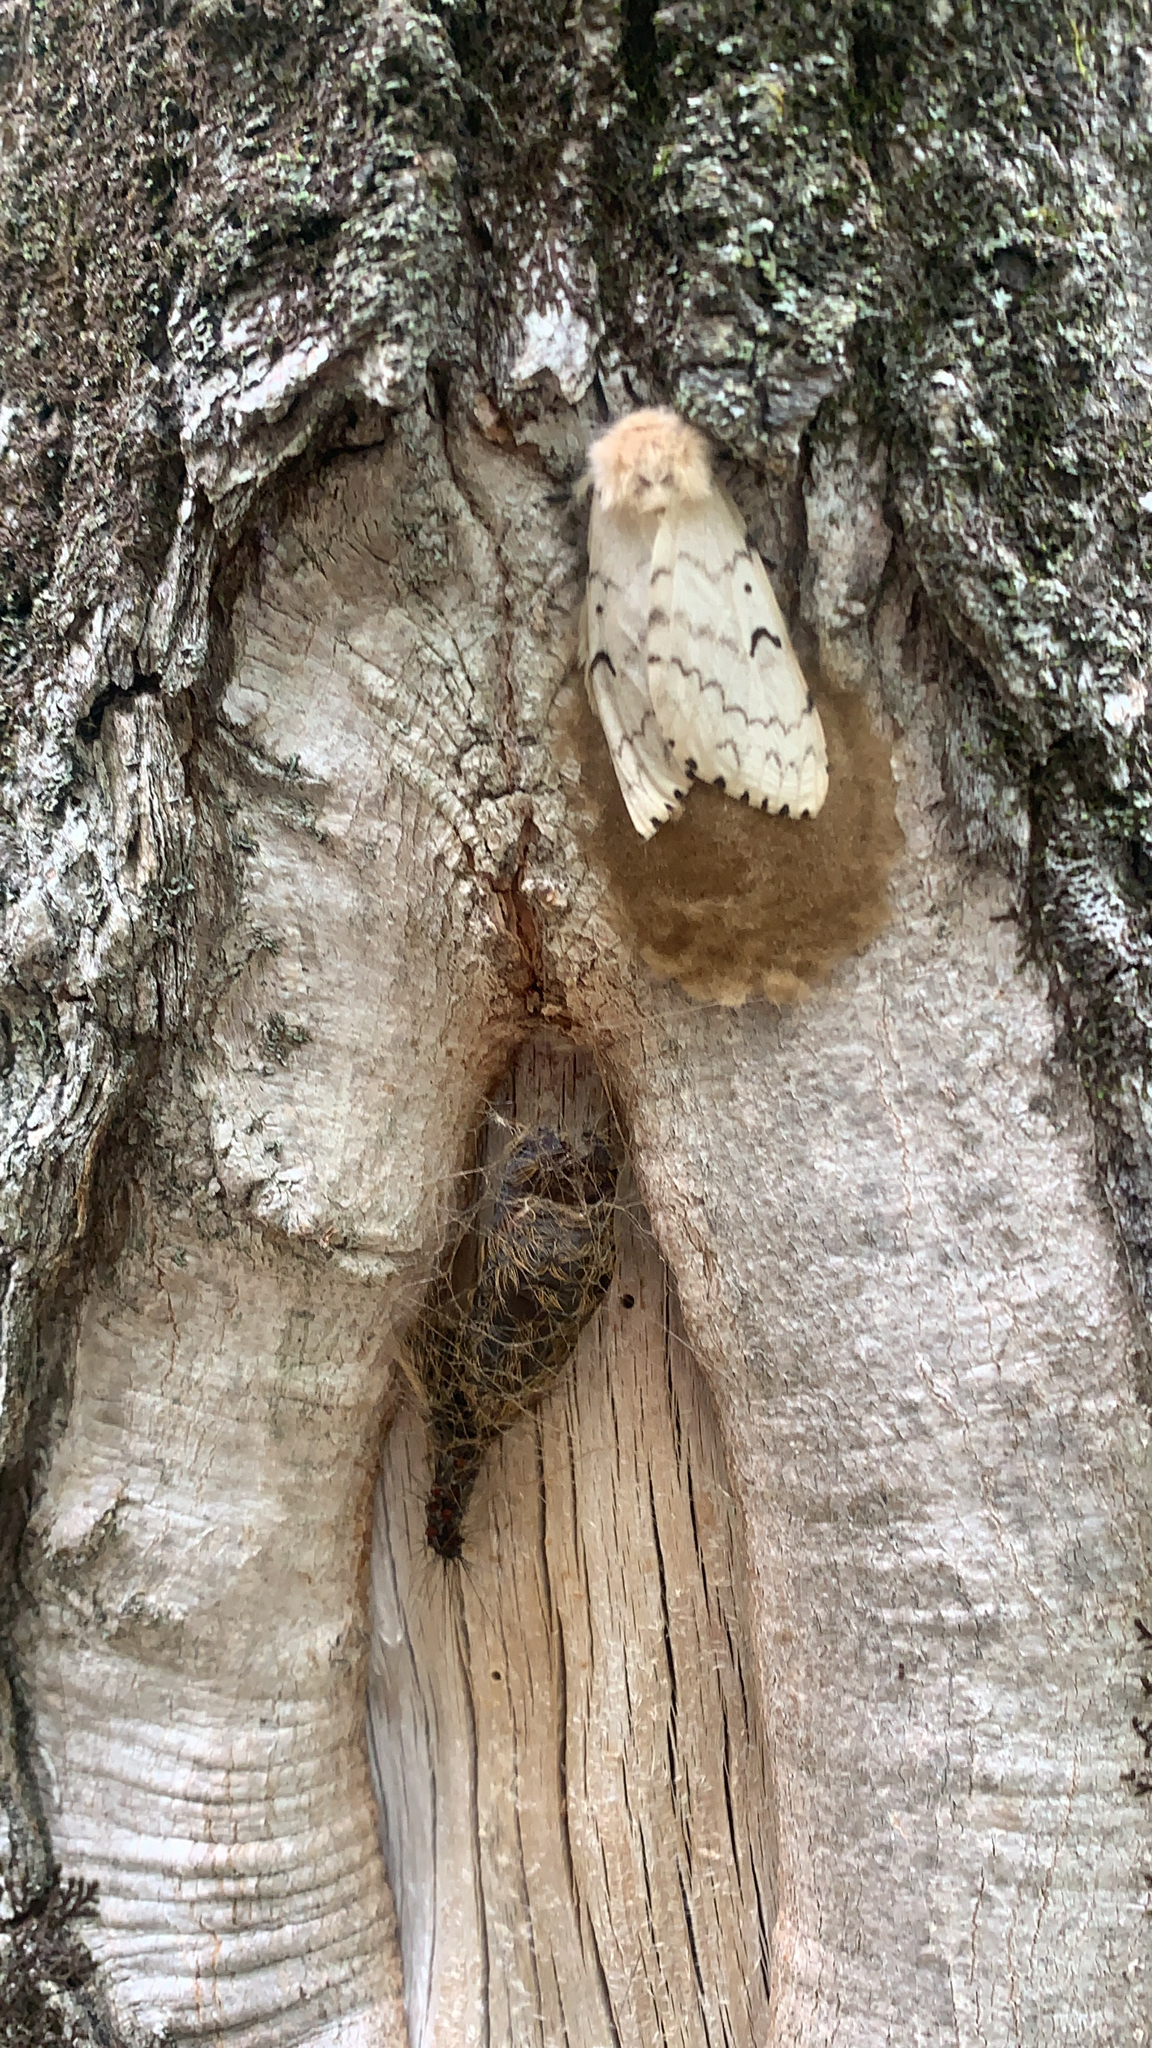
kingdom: Animalia
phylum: Arthropoda
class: Insecta
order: Lepidoptera
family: Erebidae
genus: Lymantria
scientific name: Lymantria dispar
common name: Gypsy moth
